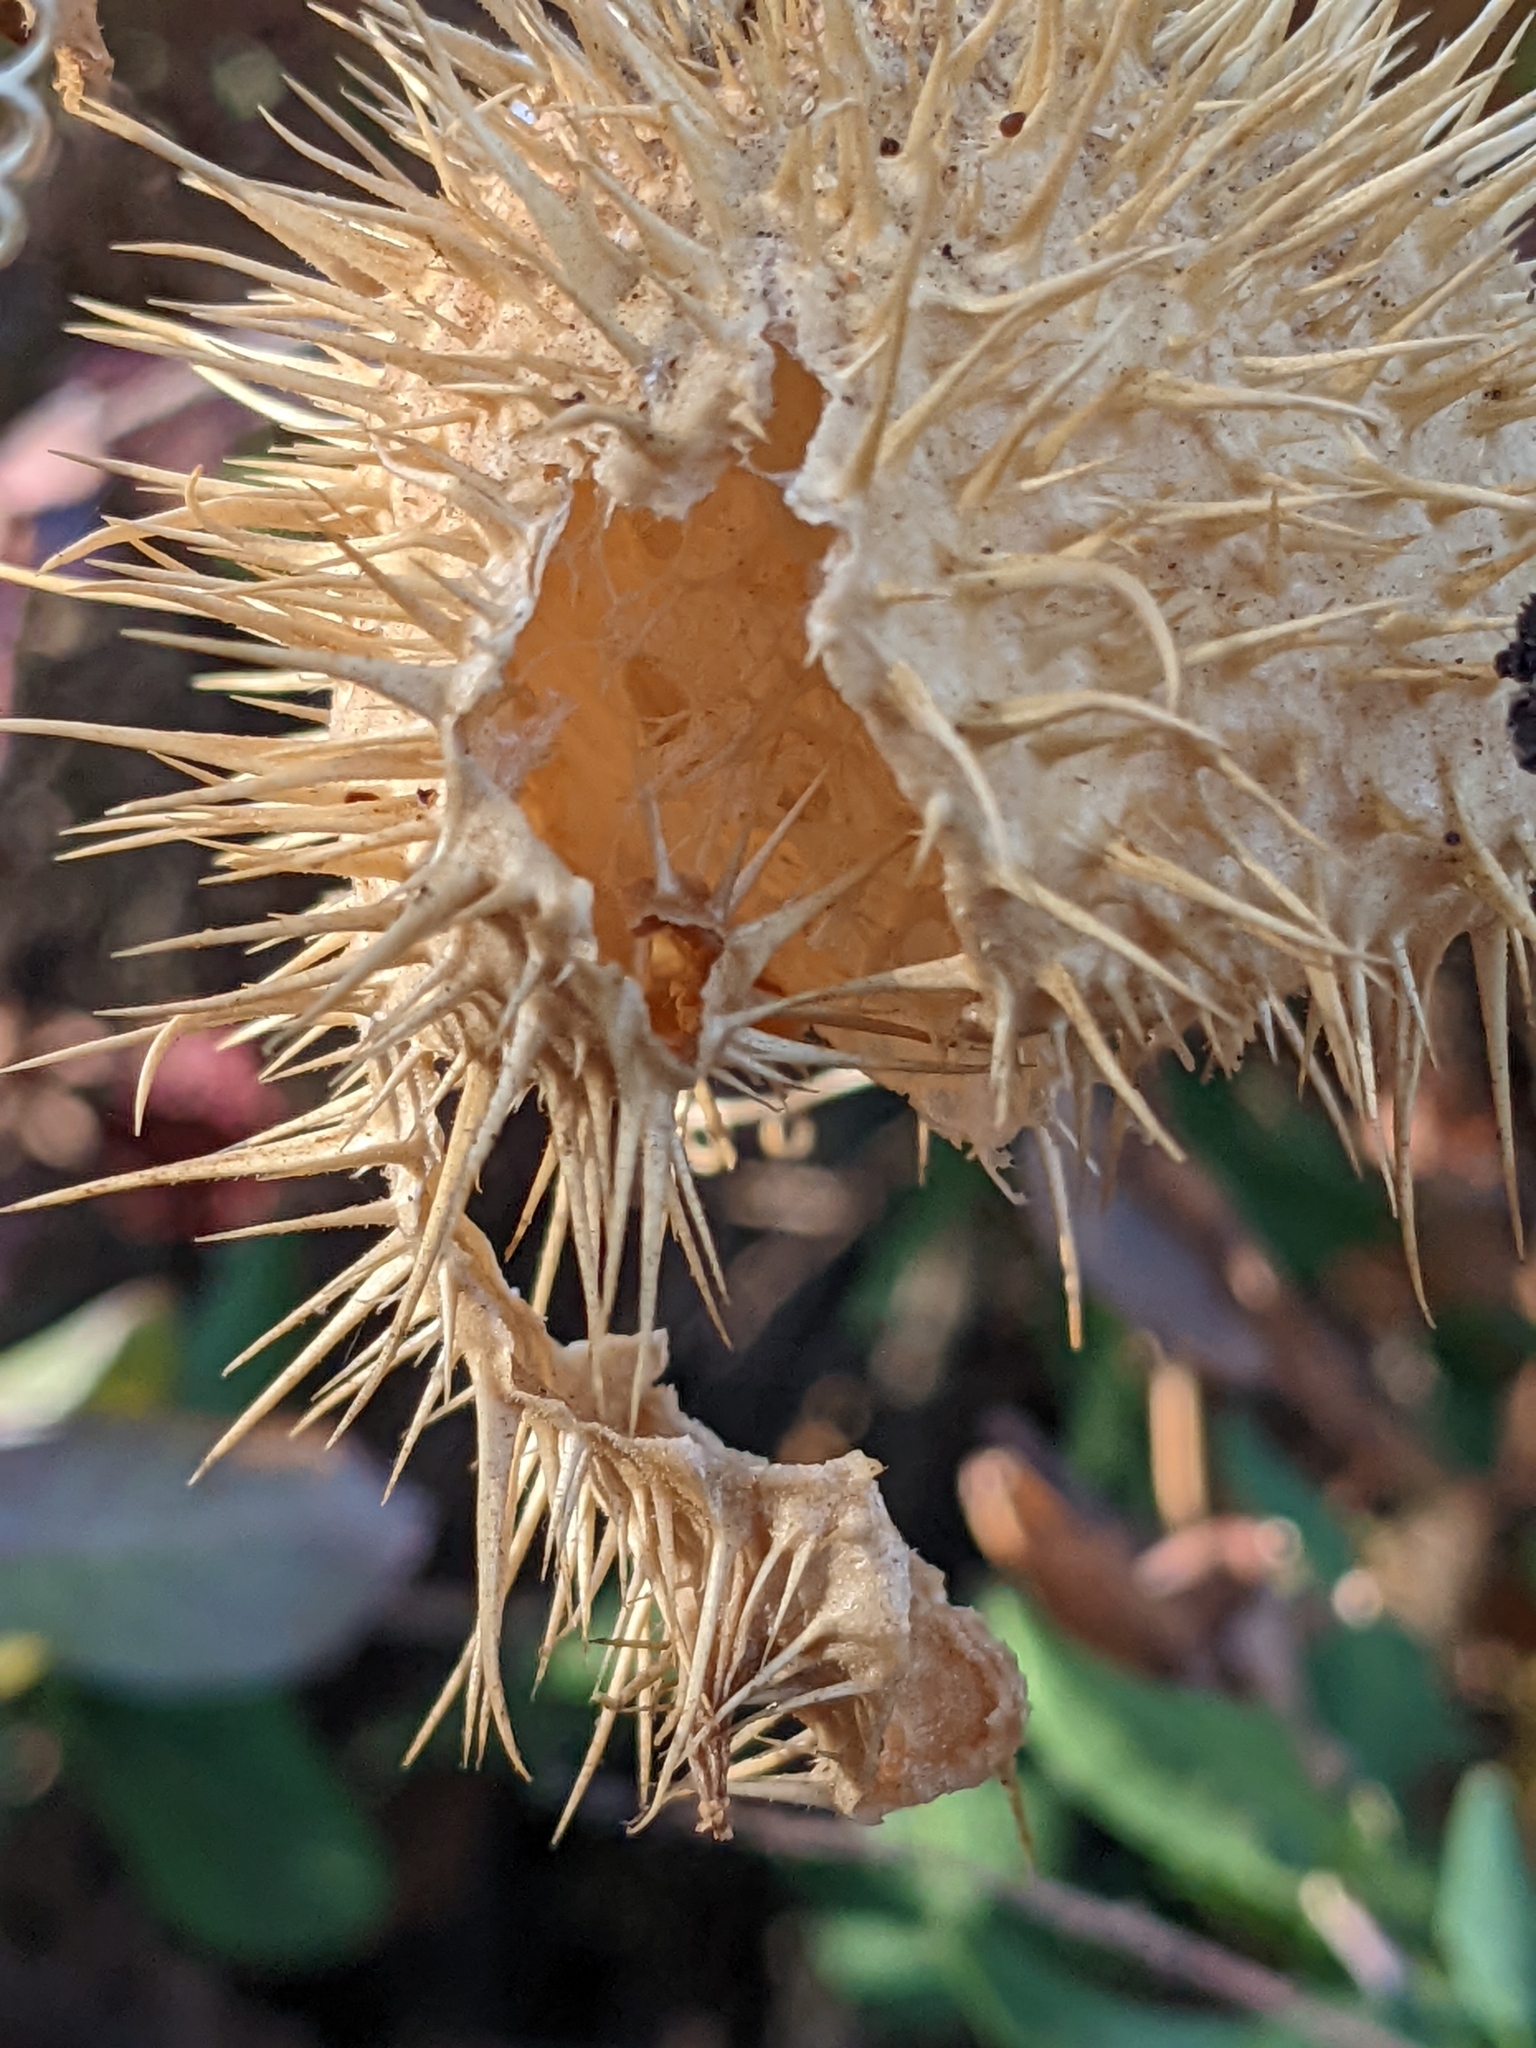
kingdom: Plantae
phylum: Tracheophyta
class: Magnoliopsida
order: Cucurbitales
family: Cucurbitaceae
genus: Marah
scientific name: Marah fabacea
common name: California manroot
